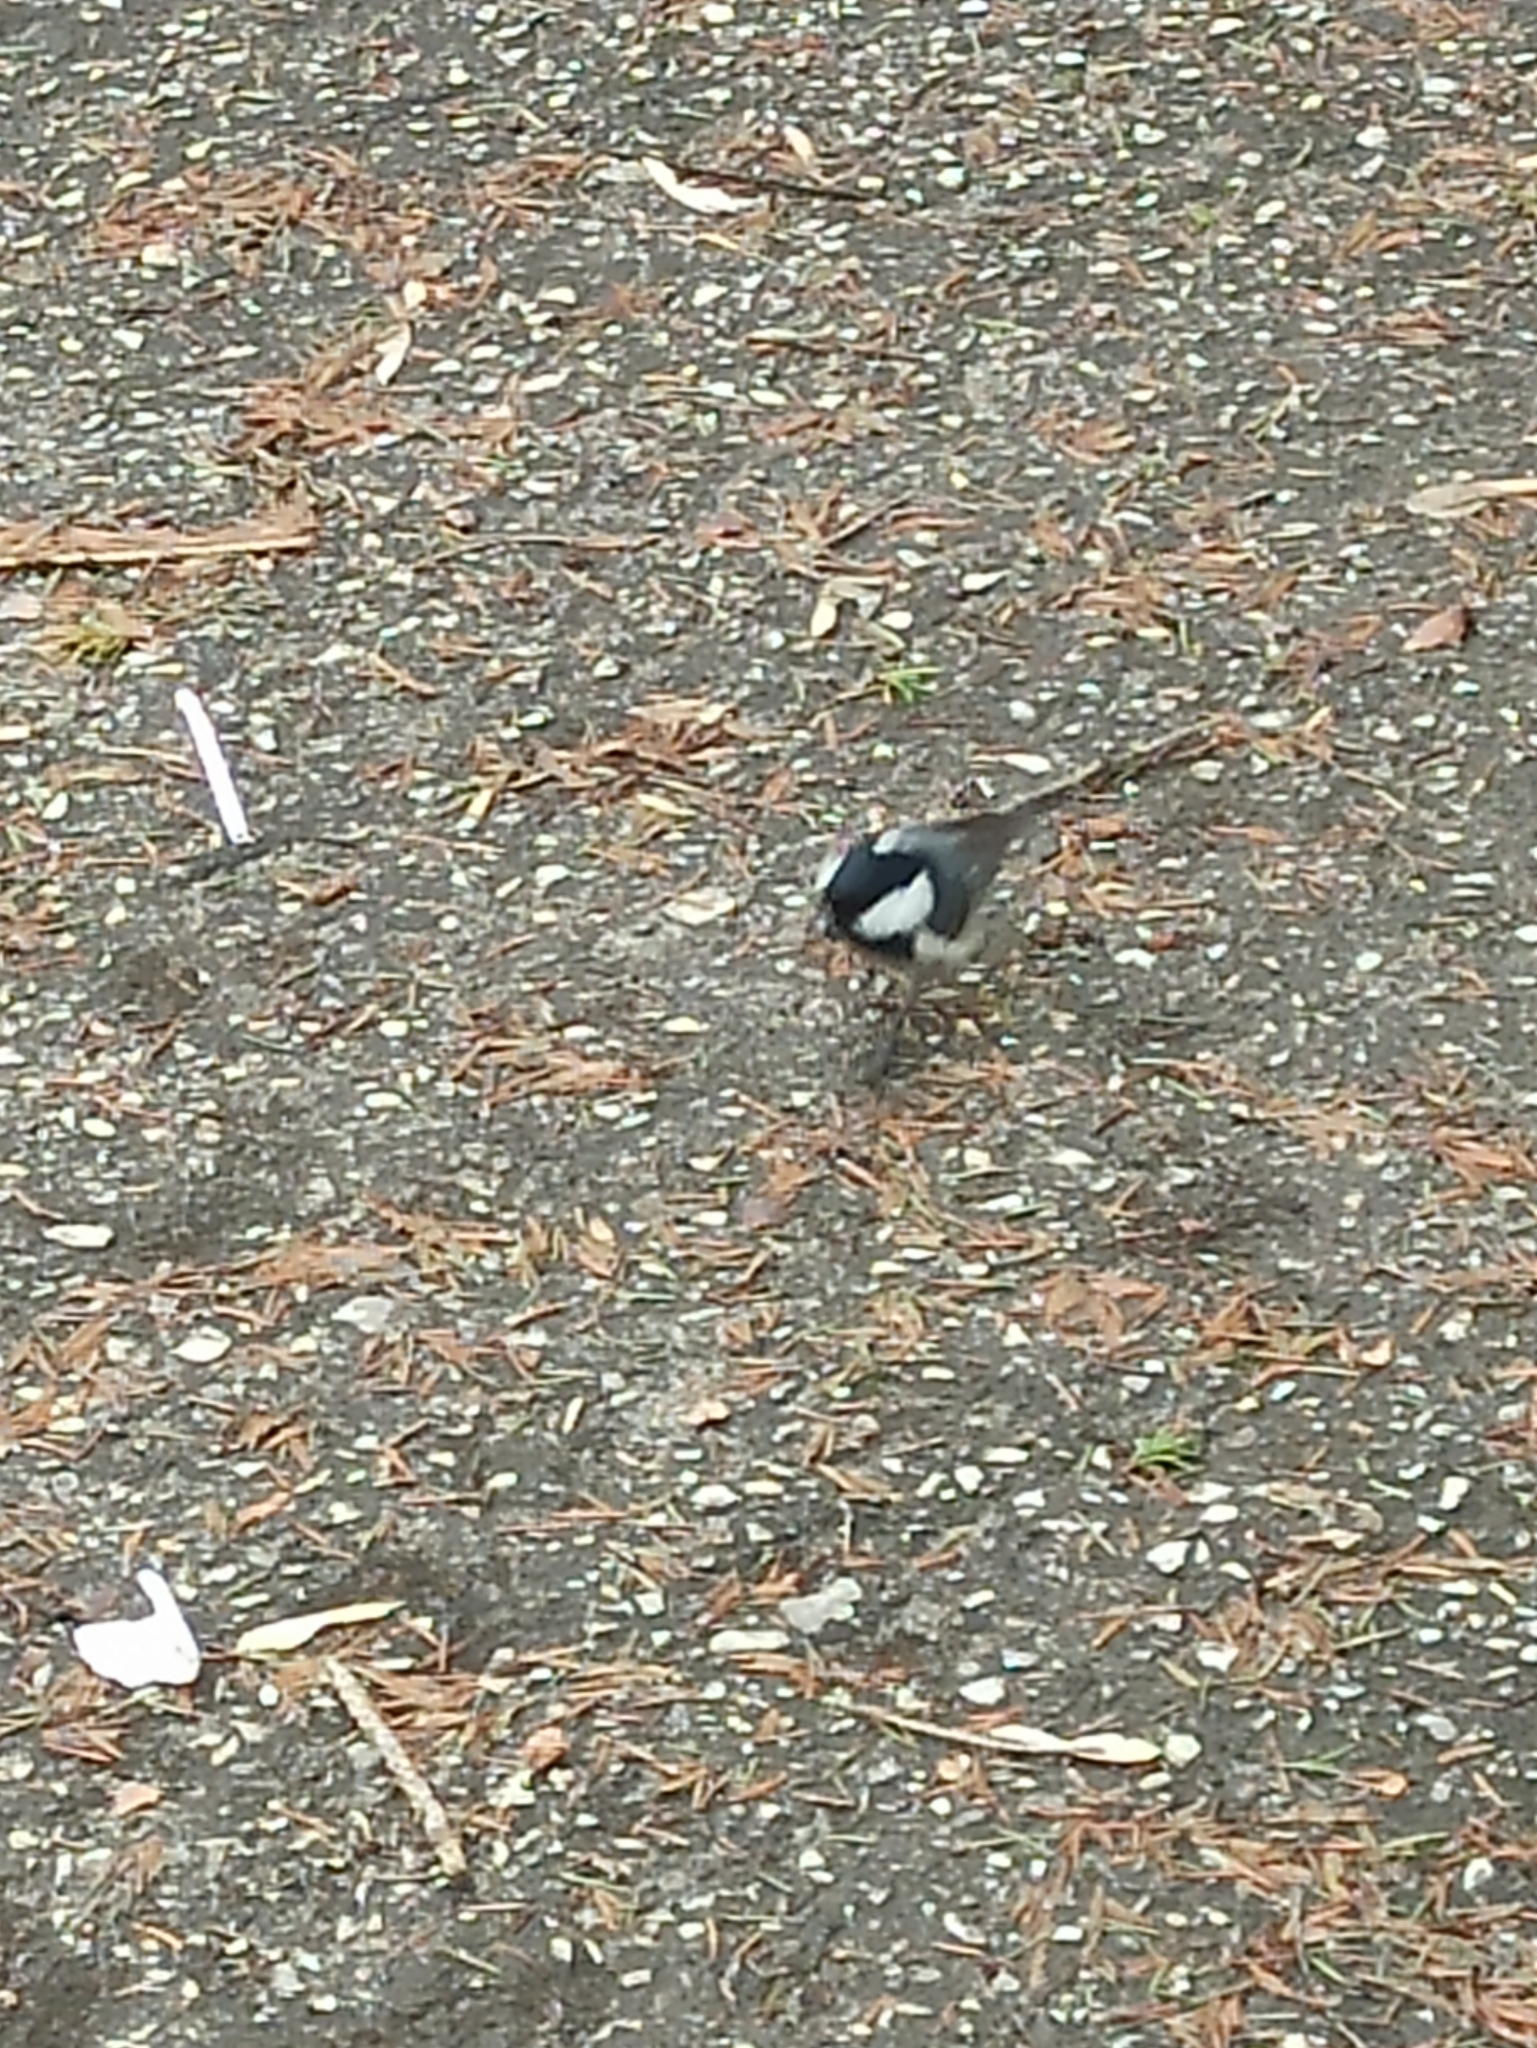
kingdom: Animalia
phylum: Chordata
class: Aves
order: Passeriformes
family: Paridae
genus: Periparus
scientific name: Periparus ater
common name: Coal tit
